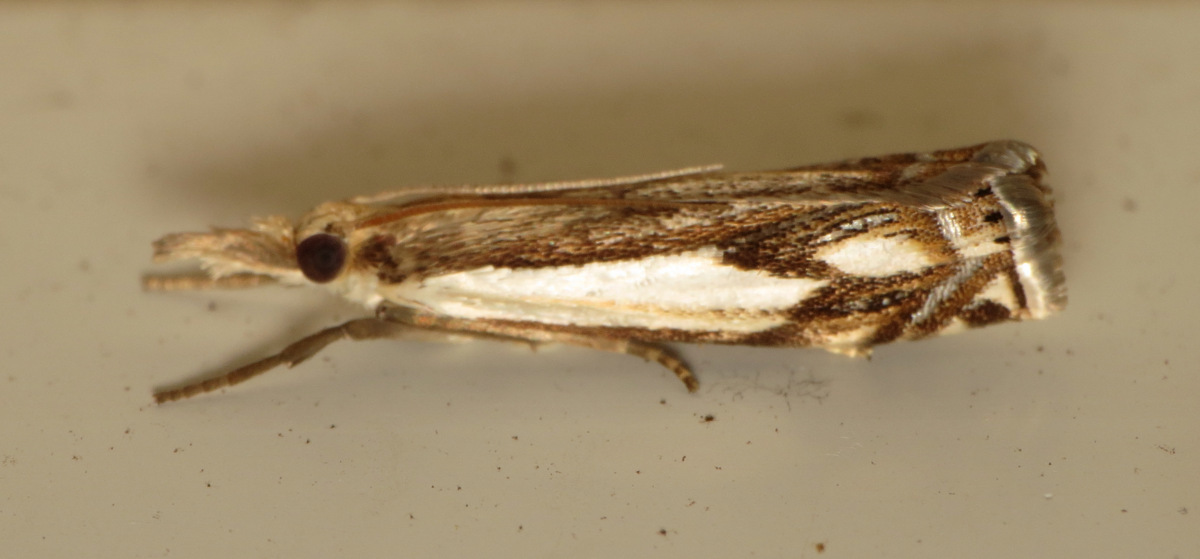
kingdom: Animalia
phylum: Arthropoda
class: Insecta
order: Lepidoptera
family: Crambidae
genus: Crambus
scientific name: Crambus agitatellus
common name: Double-banded grass-veneer
